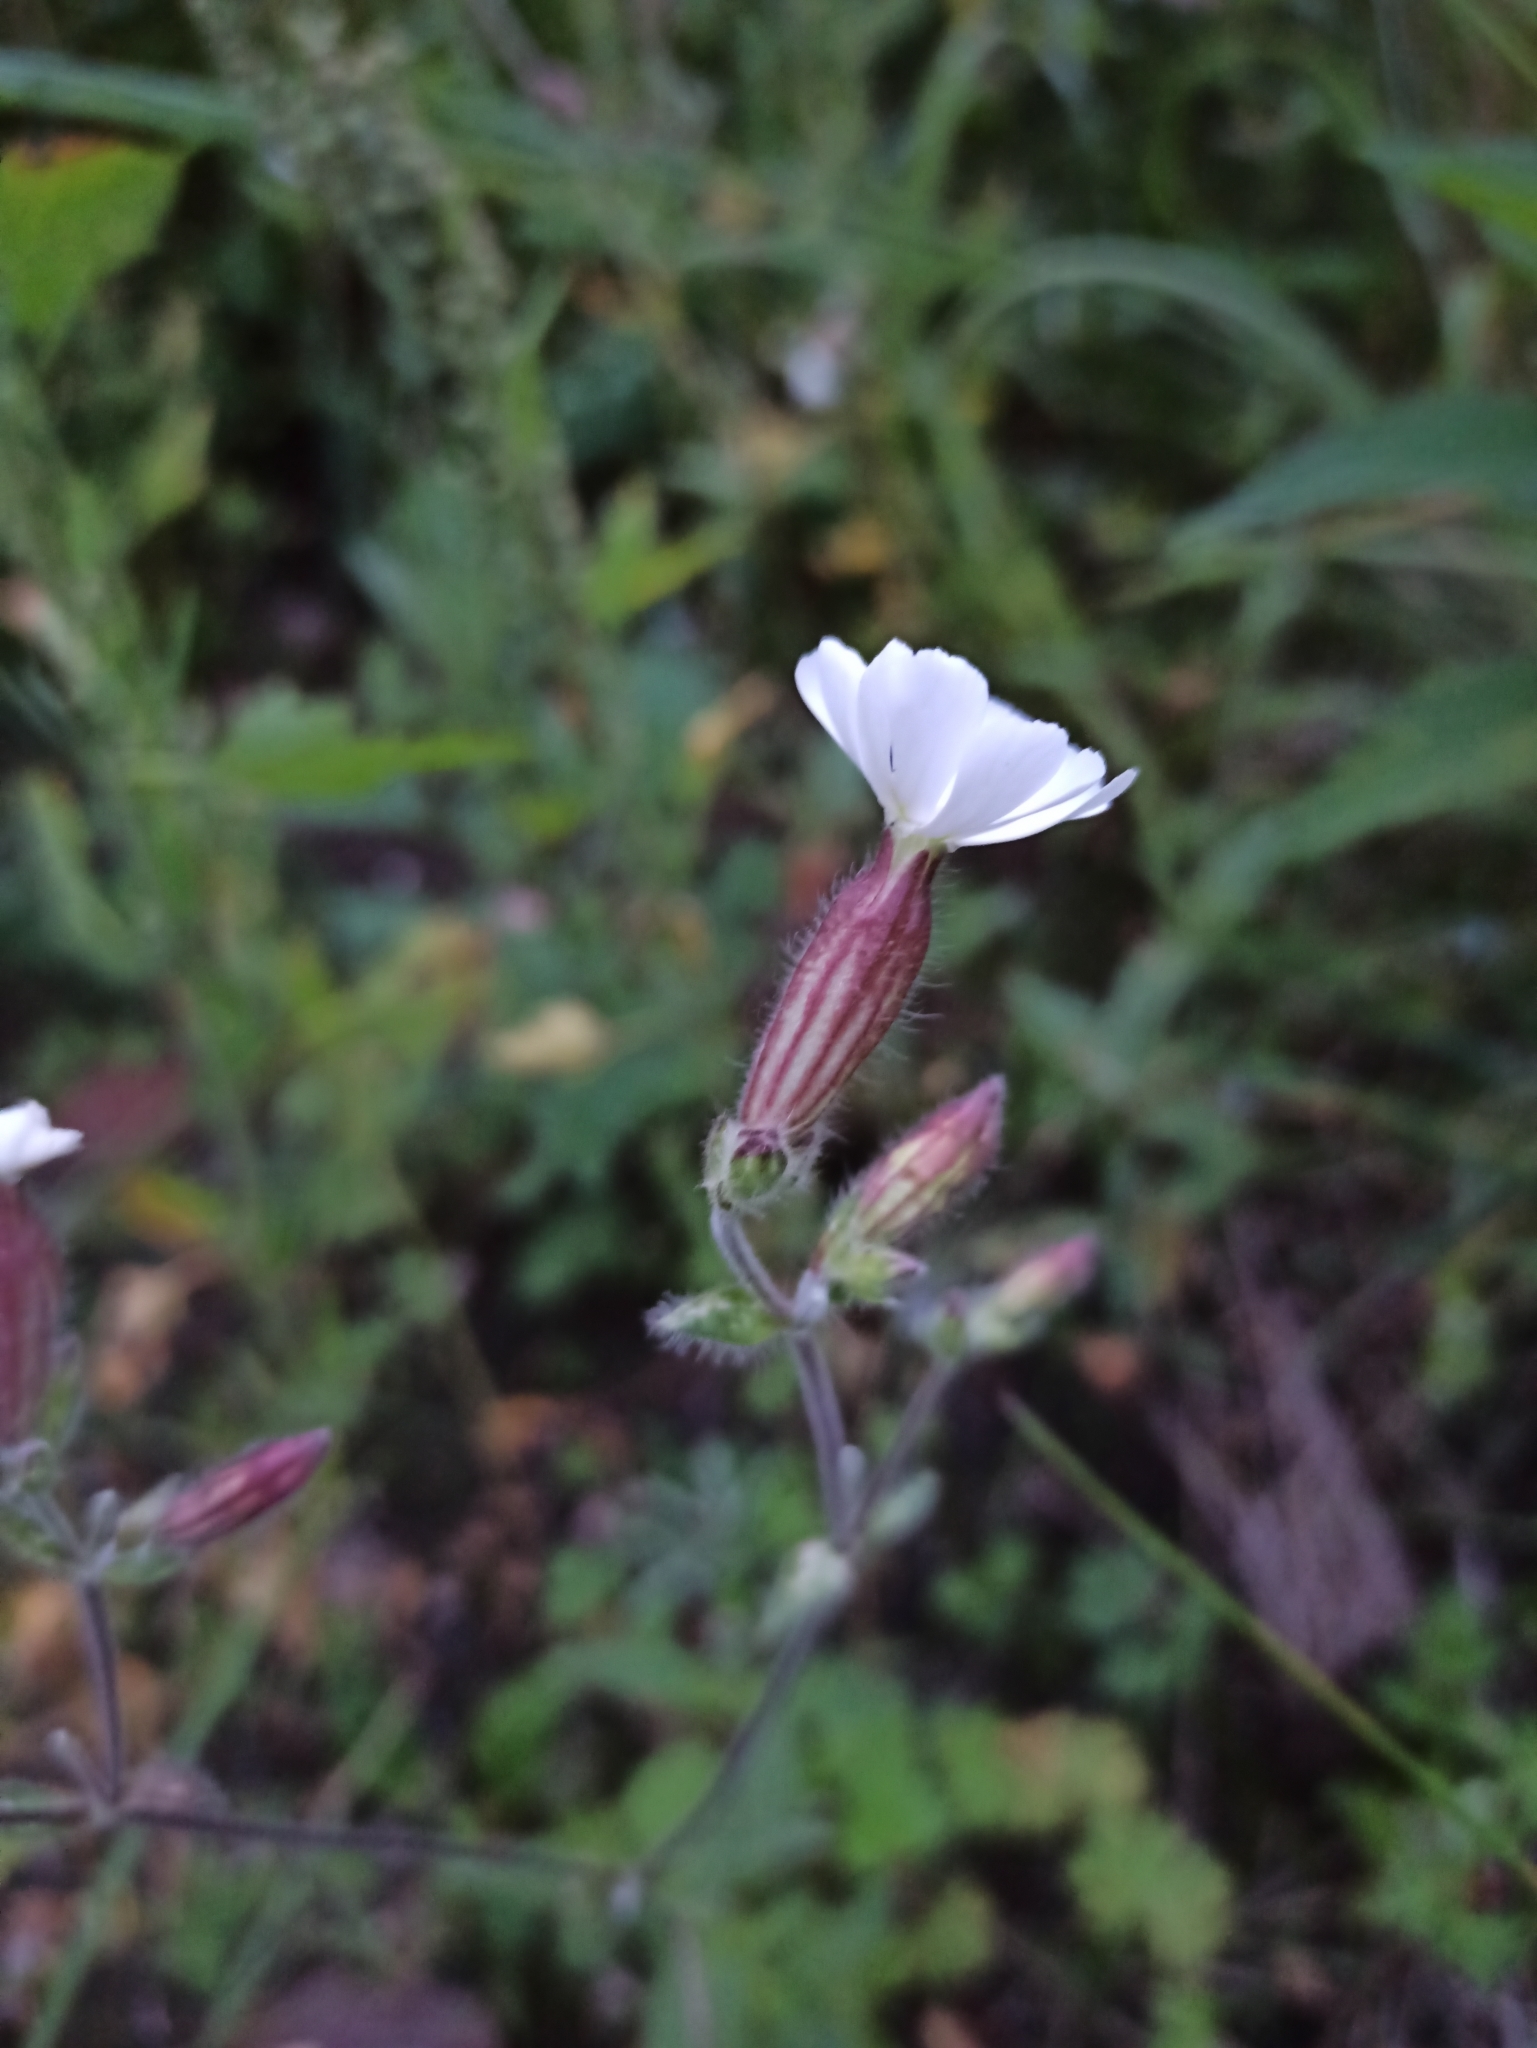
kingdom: Plantae
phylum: Tracheophyta
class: Magnoliopsida
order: Caryophyllales
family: Caryophyllaceae
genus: Silene
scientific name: Silene latifolia
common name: White campion
